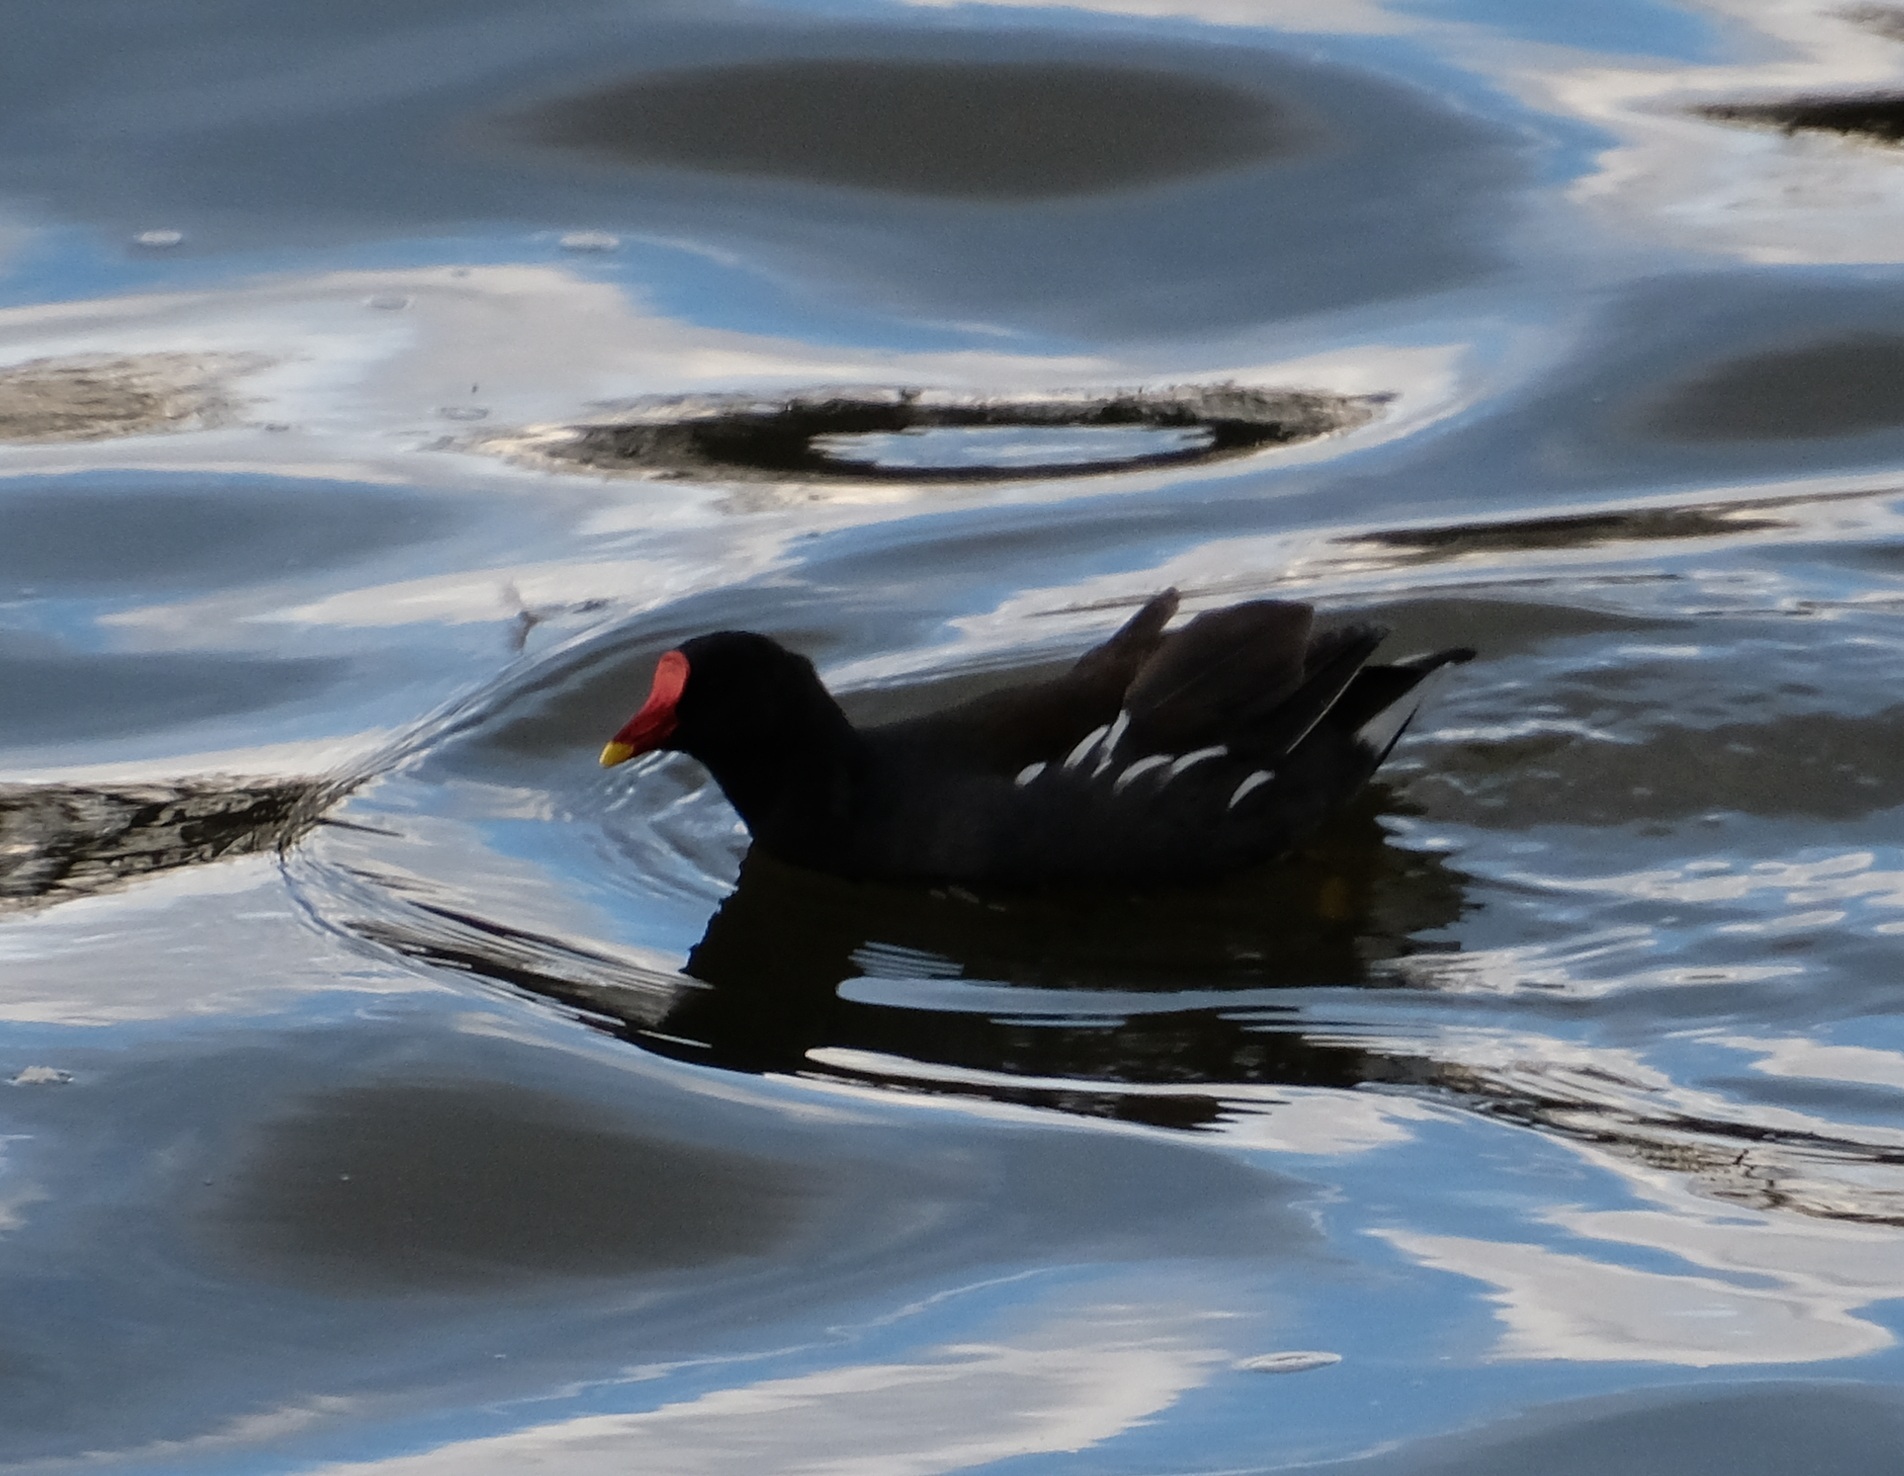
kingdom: Animalia
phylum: Chordata
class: Aves
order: Gruiformes
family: Rallidae
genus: Gallinula
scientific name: Gallinula chloropus
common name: Common moorhen
